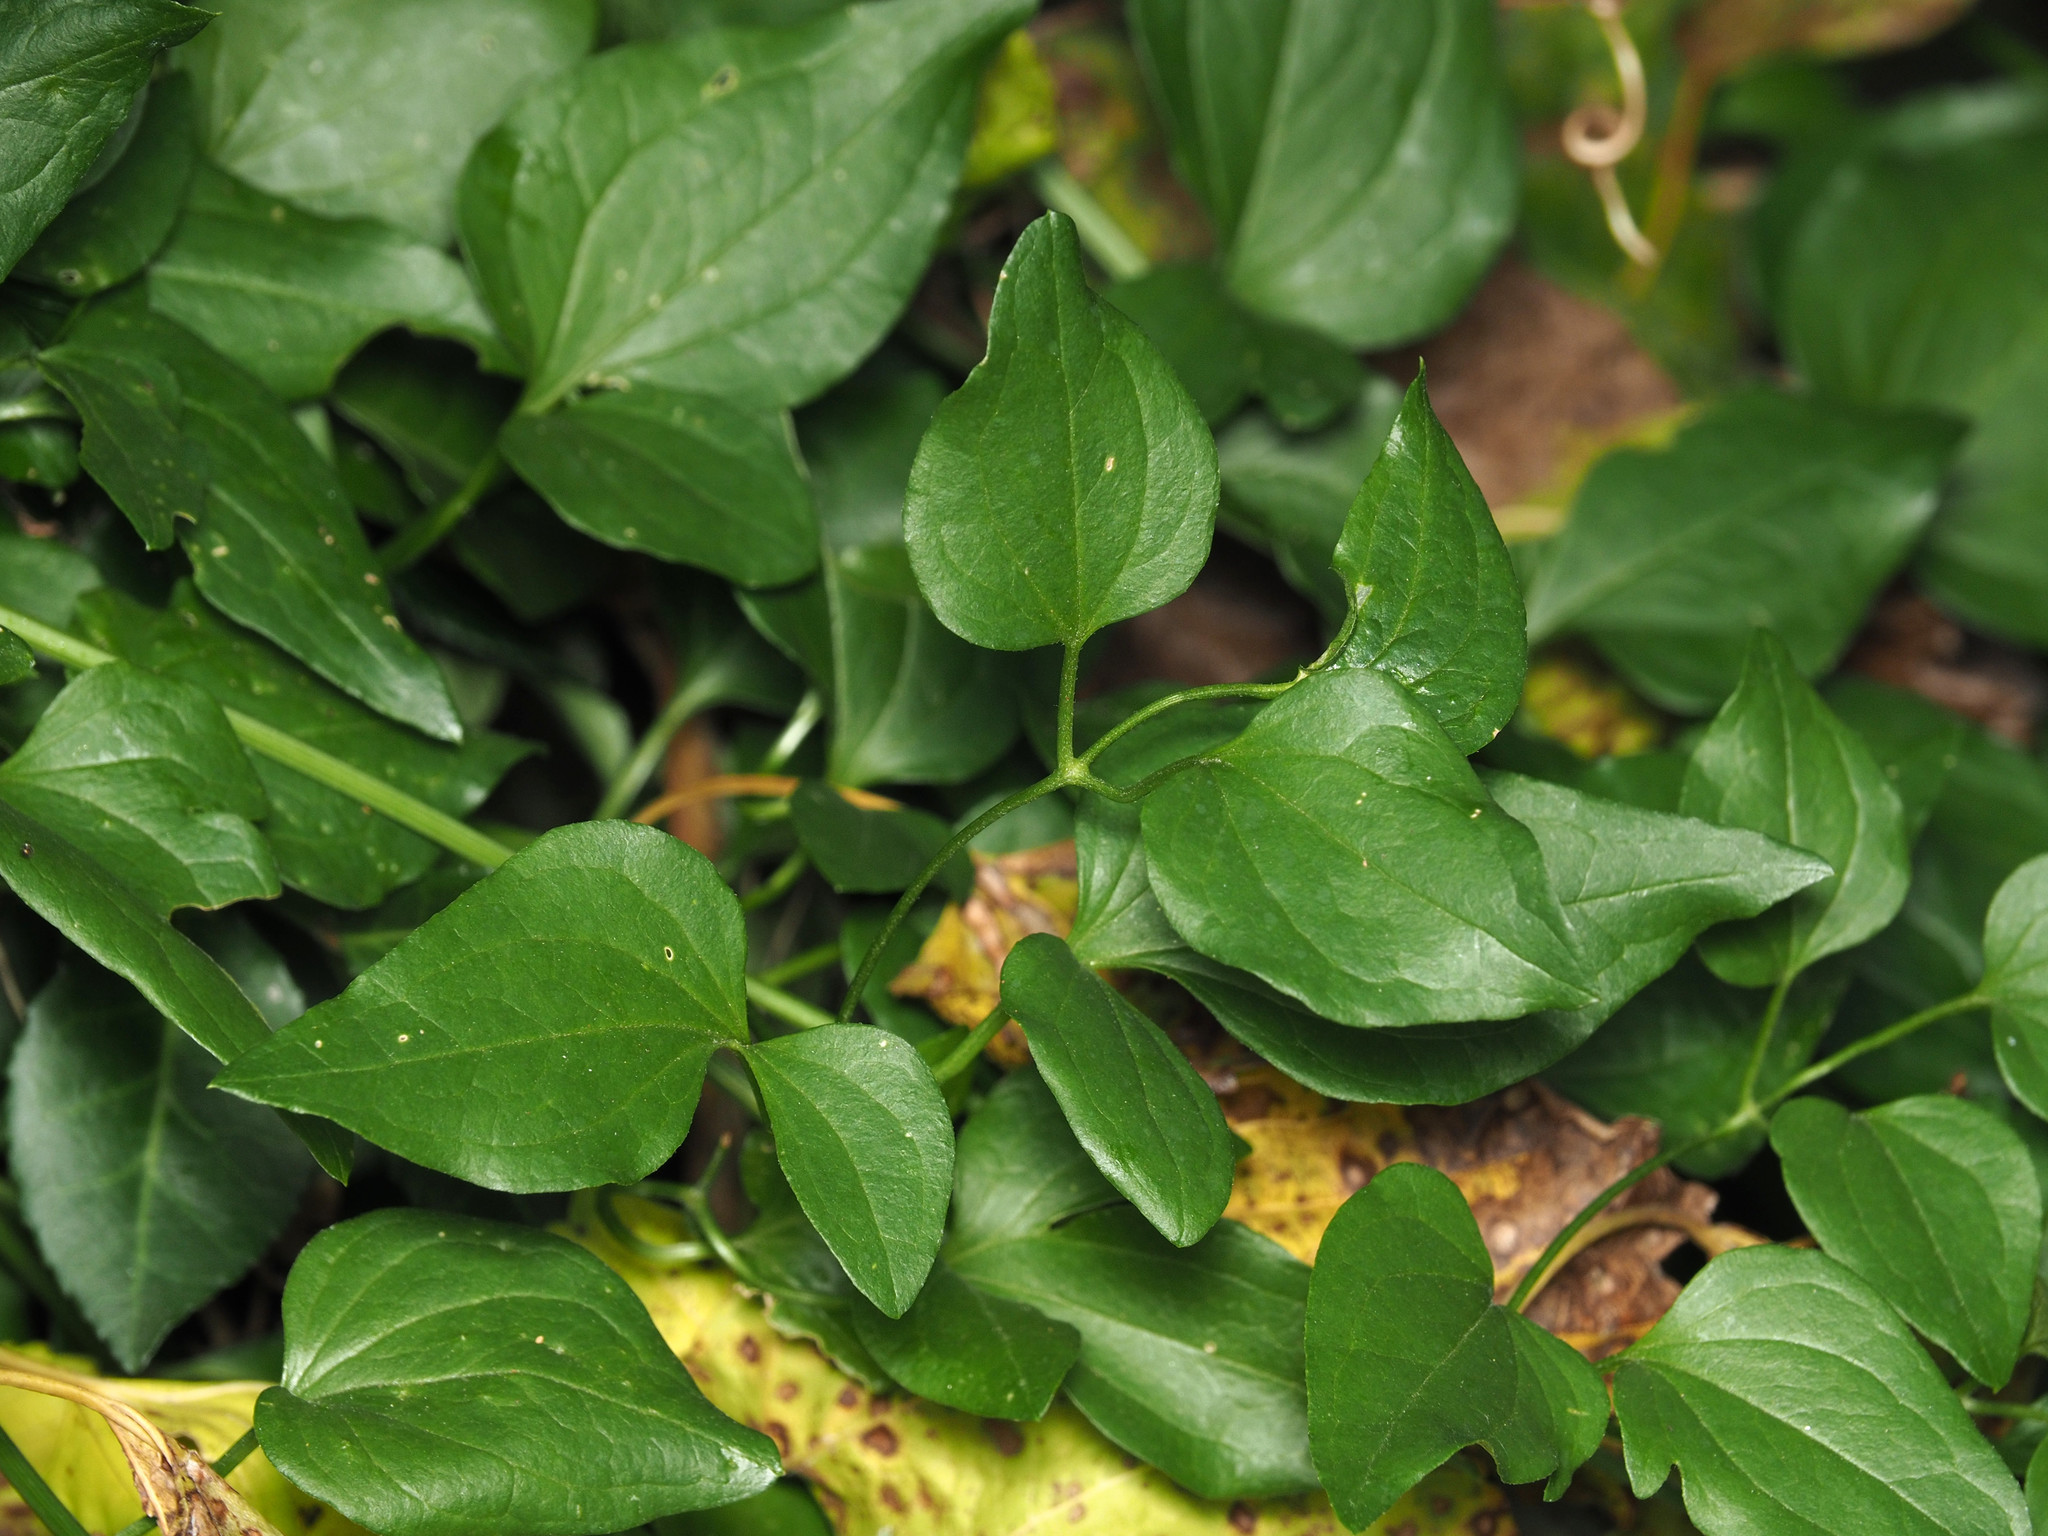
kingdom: Plantae
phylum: Tracheophyta
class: Magnoliopsida
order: Ranunculales
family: Ranunculaceae
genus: Clematis
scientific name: Clematis terniflora
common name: Sweet autumn clematis
